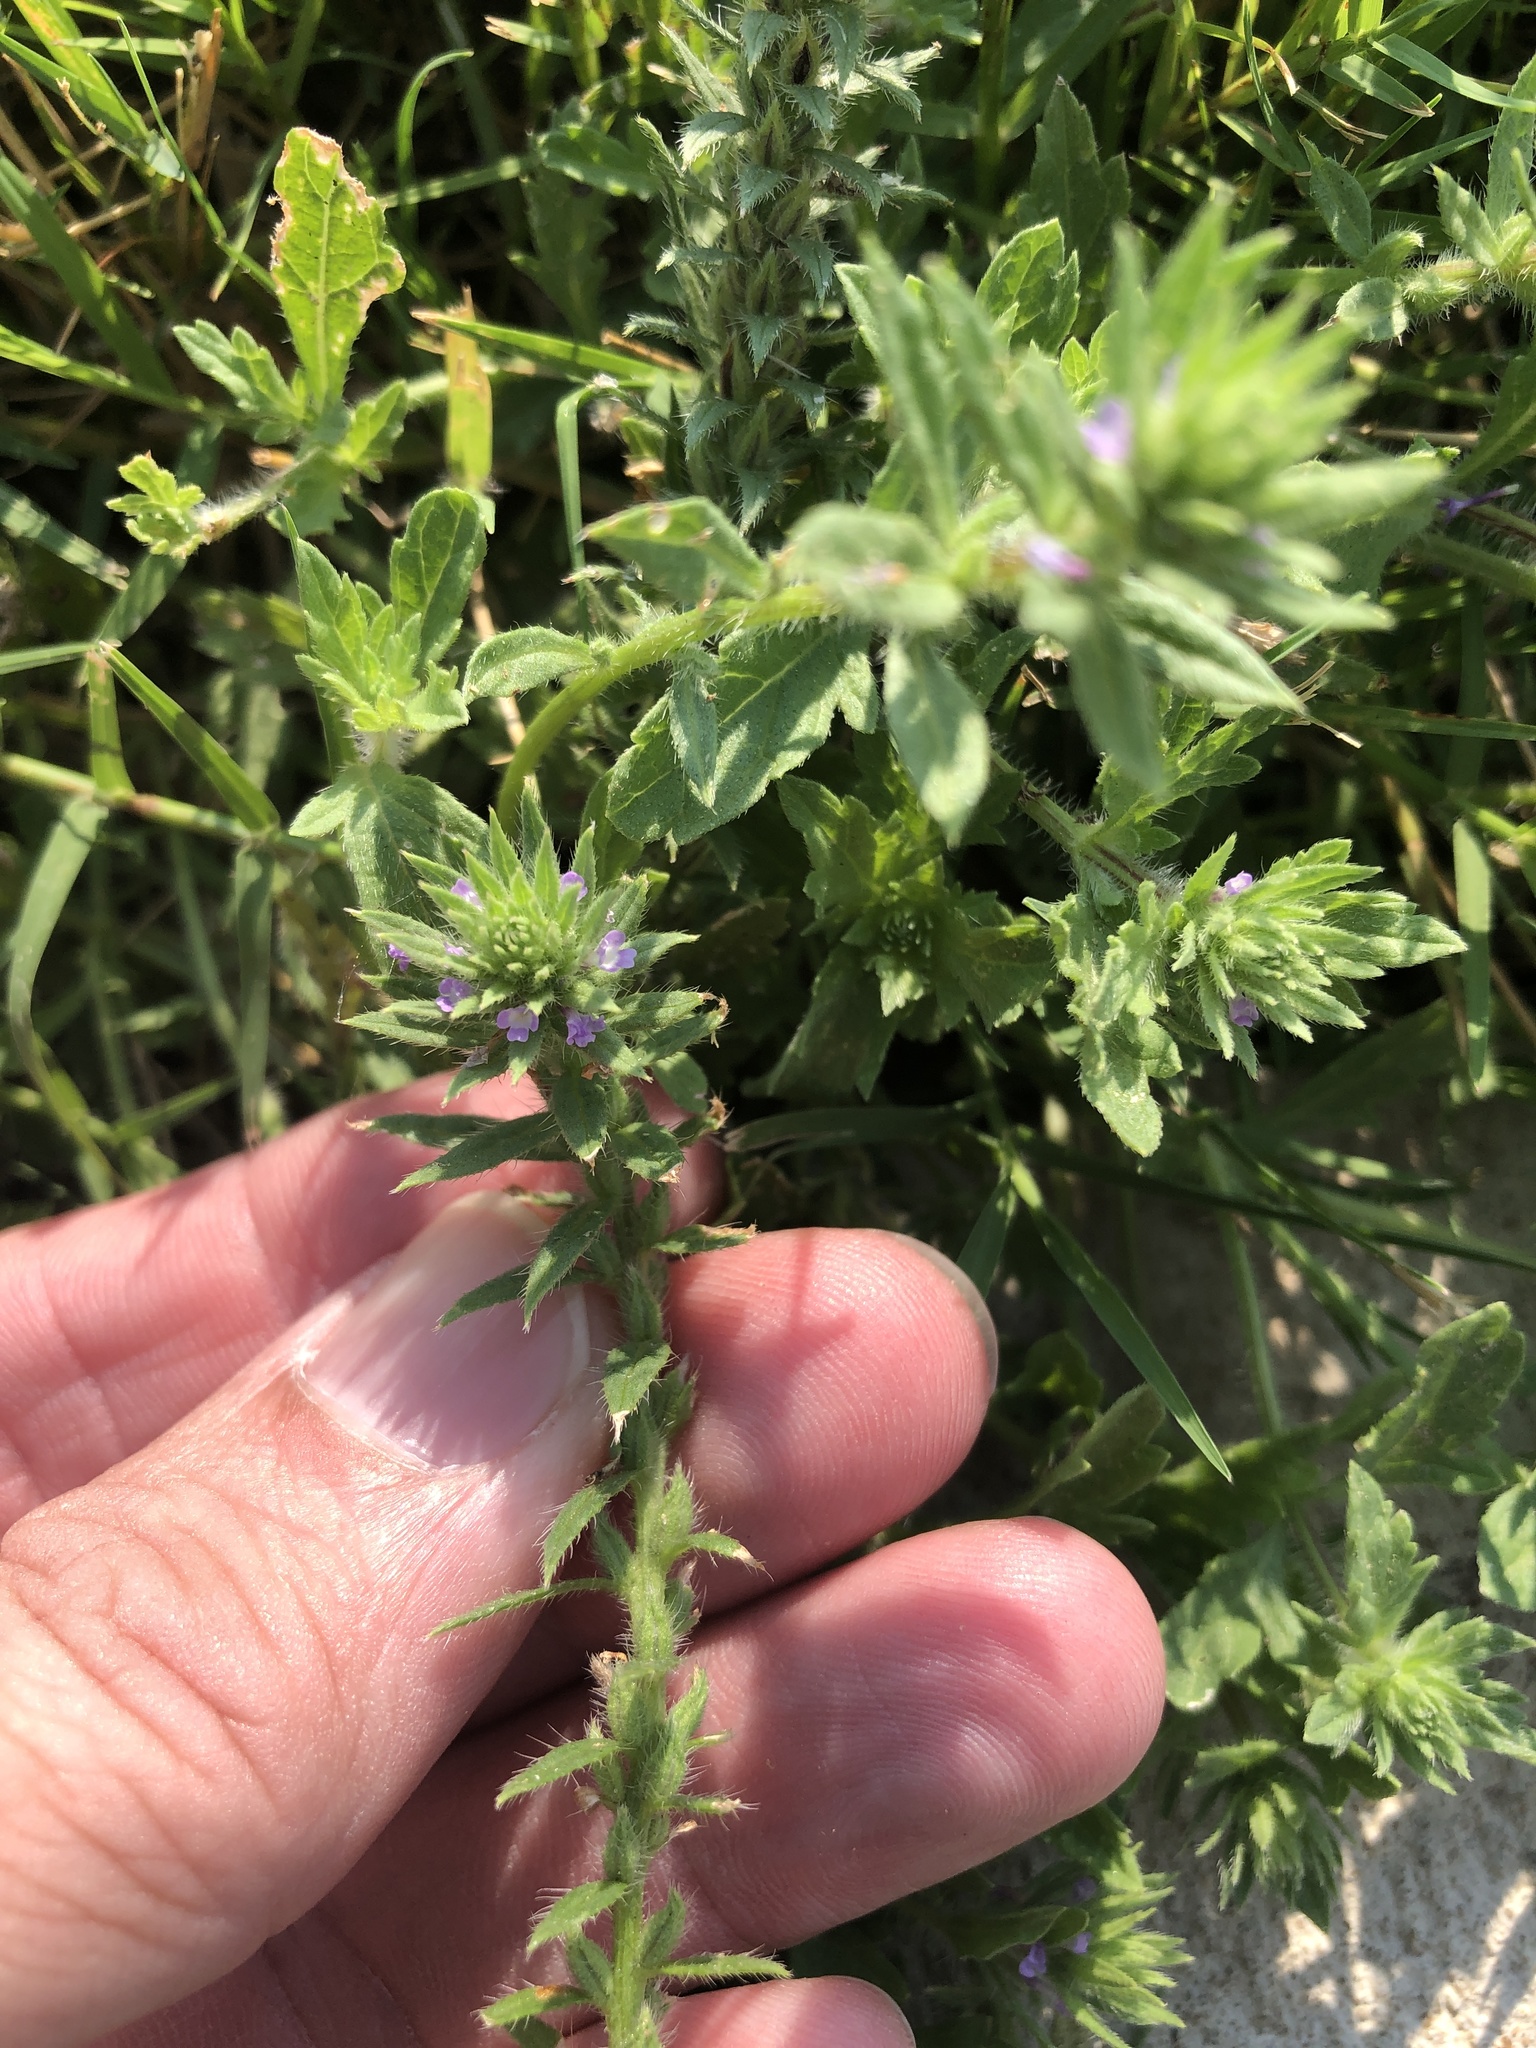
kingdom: Plantae
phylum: Tracheophyta
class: Magnoliopsida
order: Lamiales
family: Verbenaceae
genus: Verbena
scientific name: Verbena bracteata
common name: Bracted vervain
